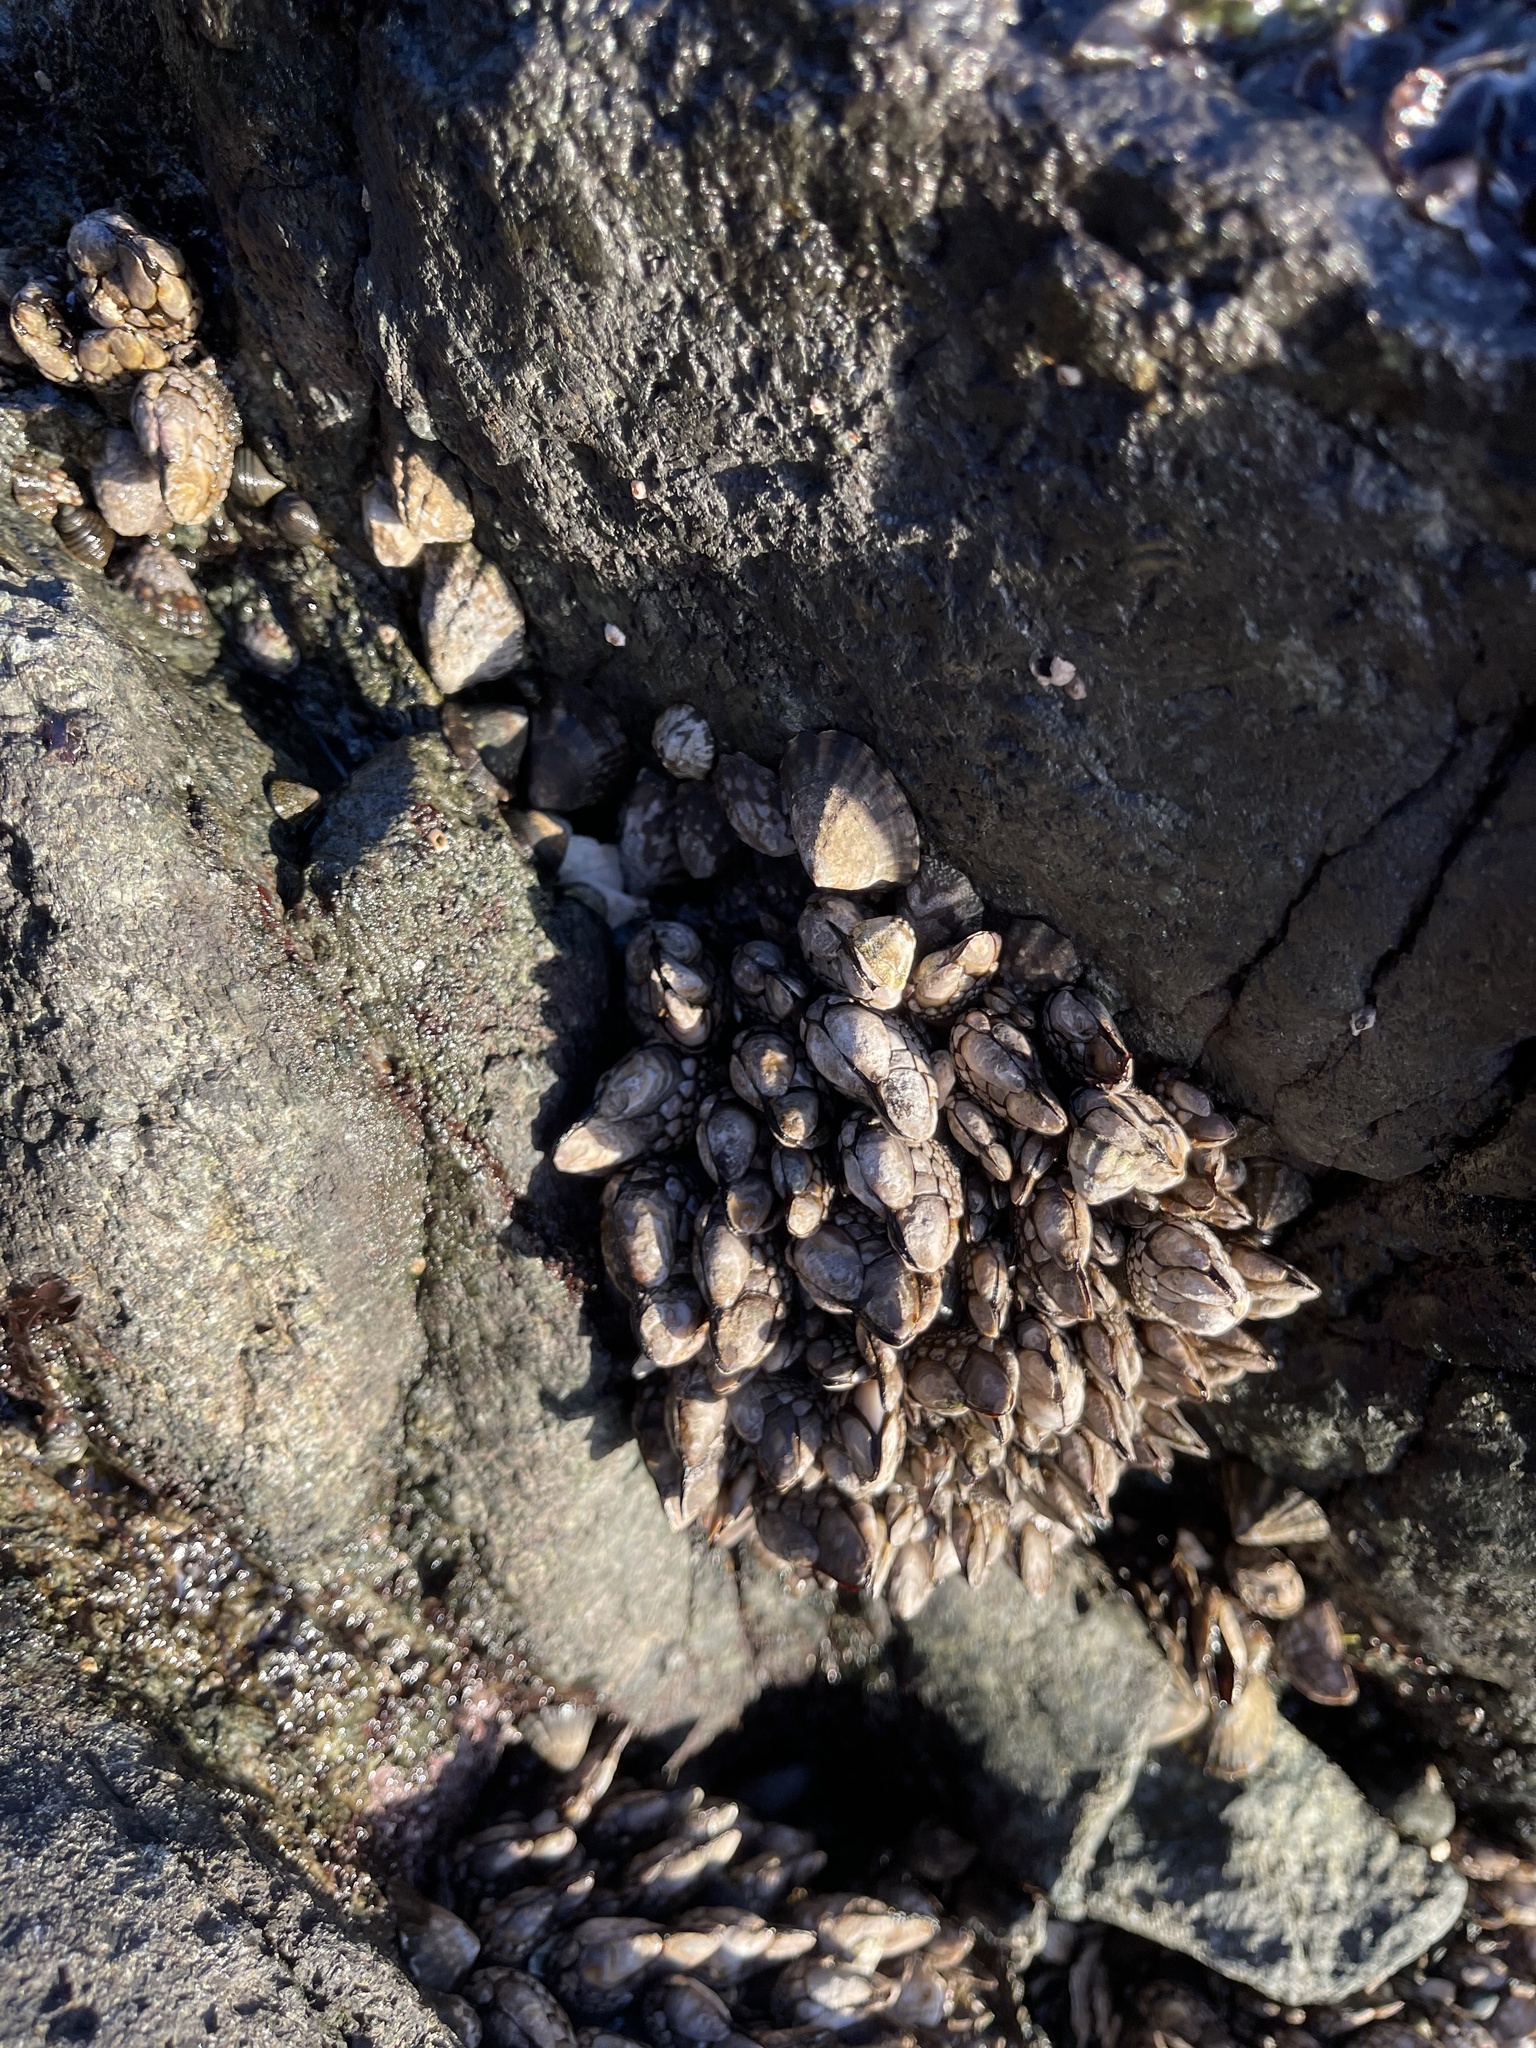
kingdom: Animalia
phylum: Arthropoda
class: Maxillopoda
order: Pedunculata
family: Pollicipedidae
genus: Pollicipes
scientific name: Pollicipes polymerus
